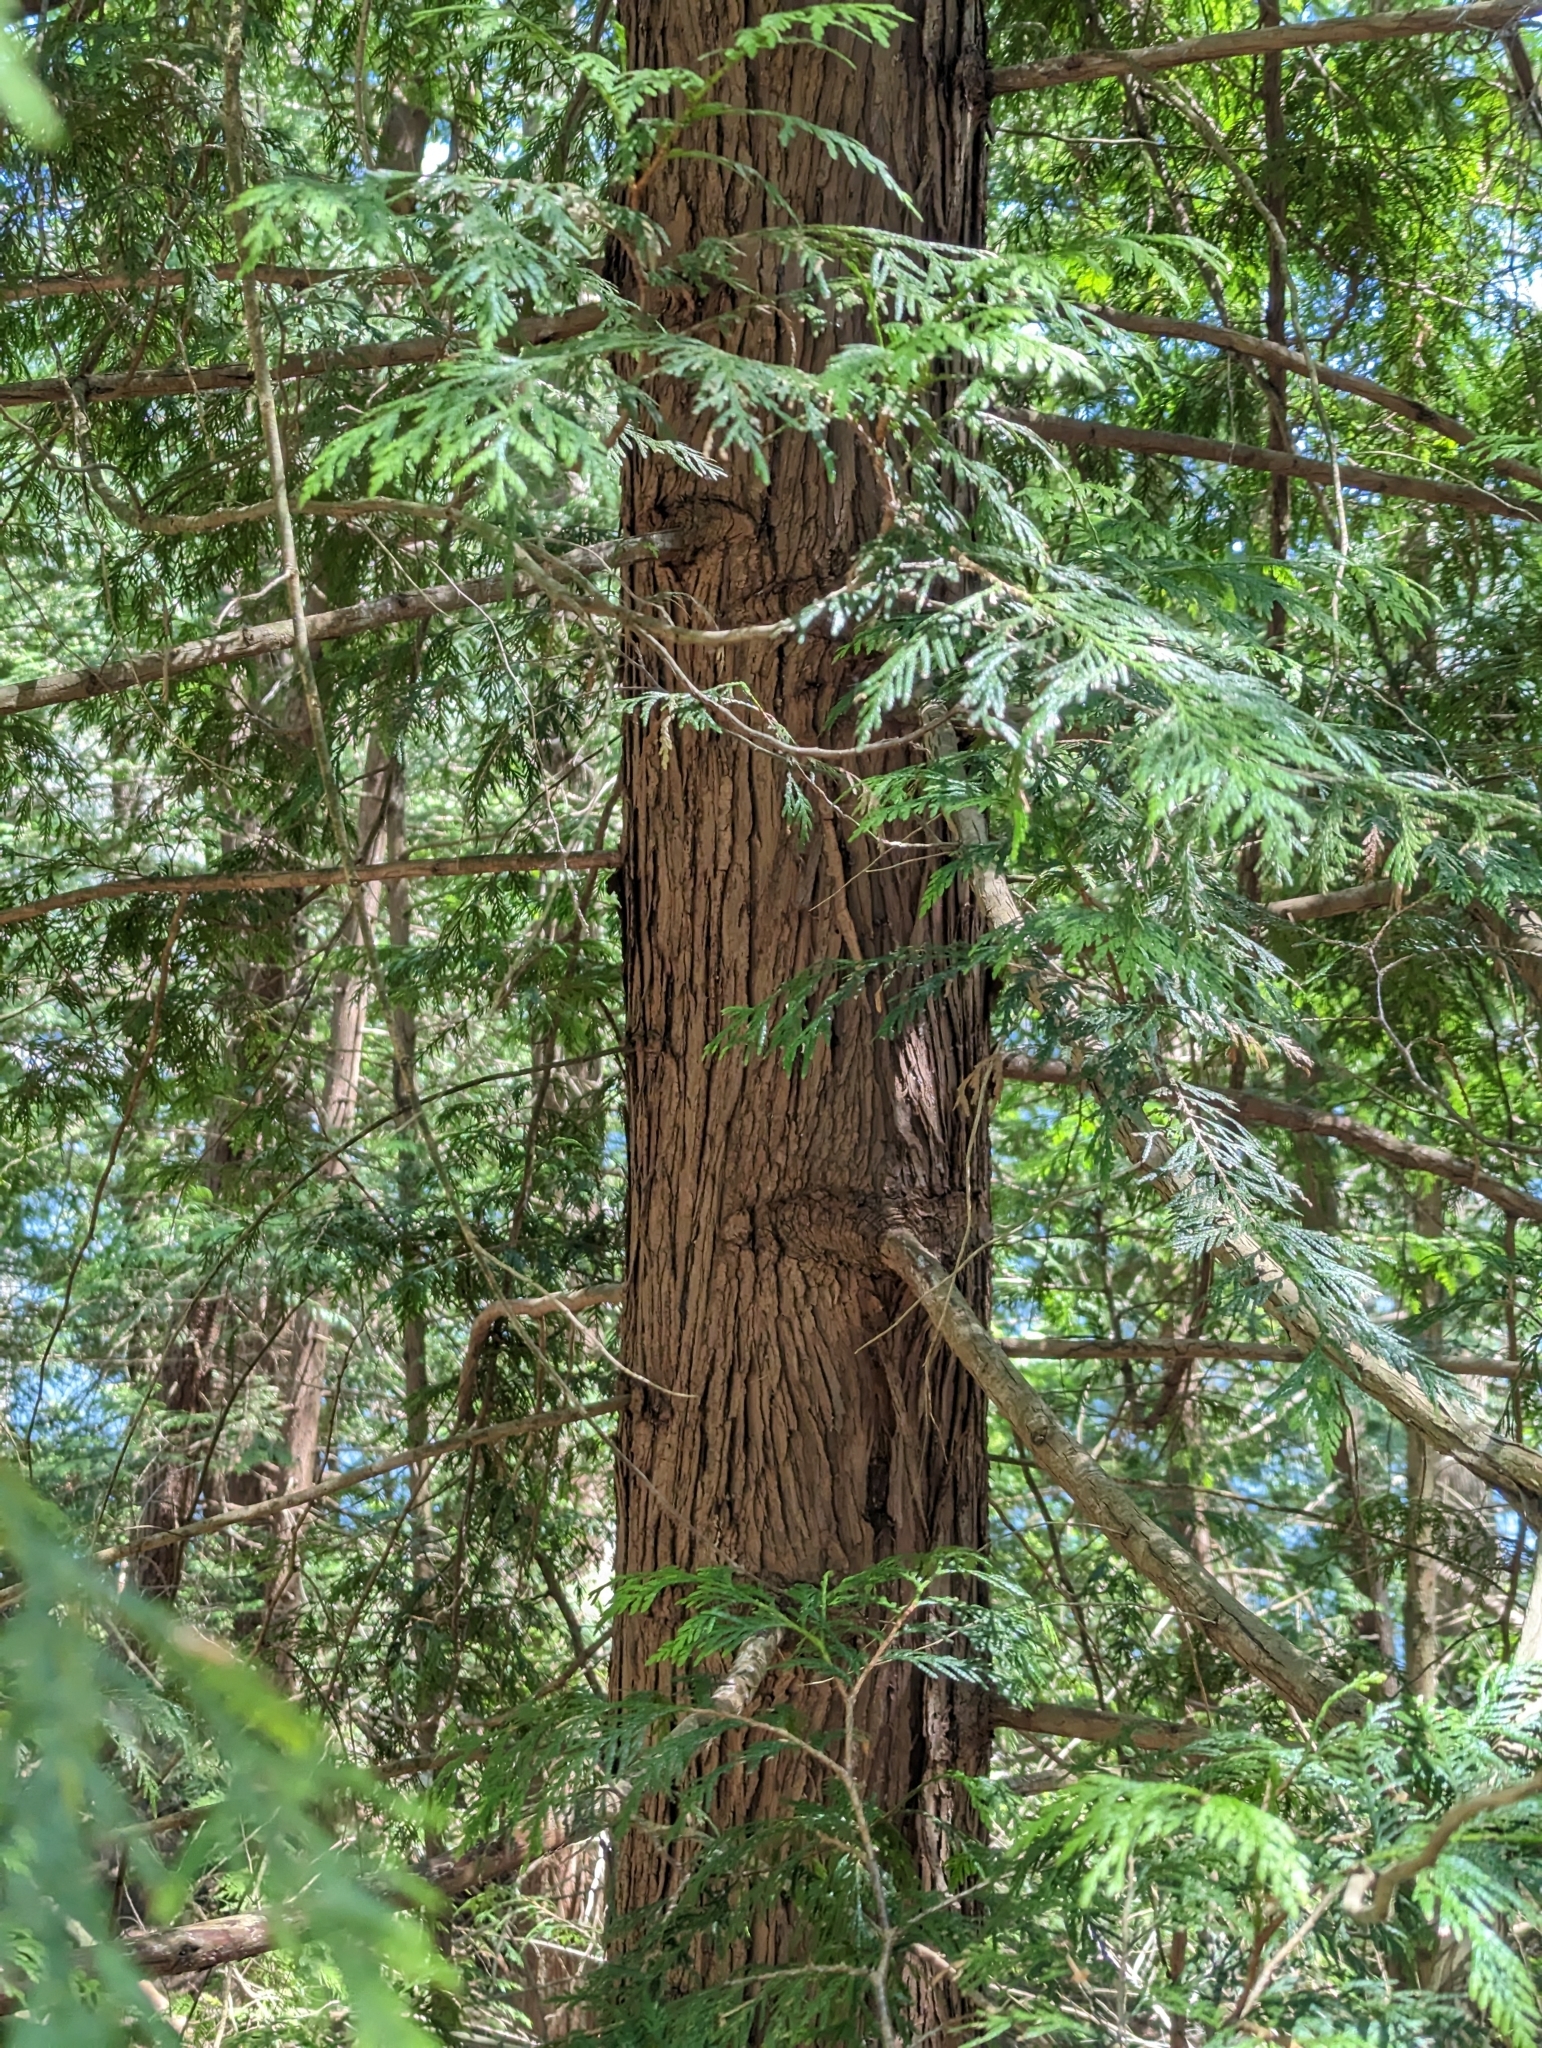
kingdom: Plantae
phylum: Tracheophyta
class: Pinopsida
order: Pinales
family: Cupressaceae
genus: Thuja
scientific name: Thuja plicata
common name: Western red-cedar
